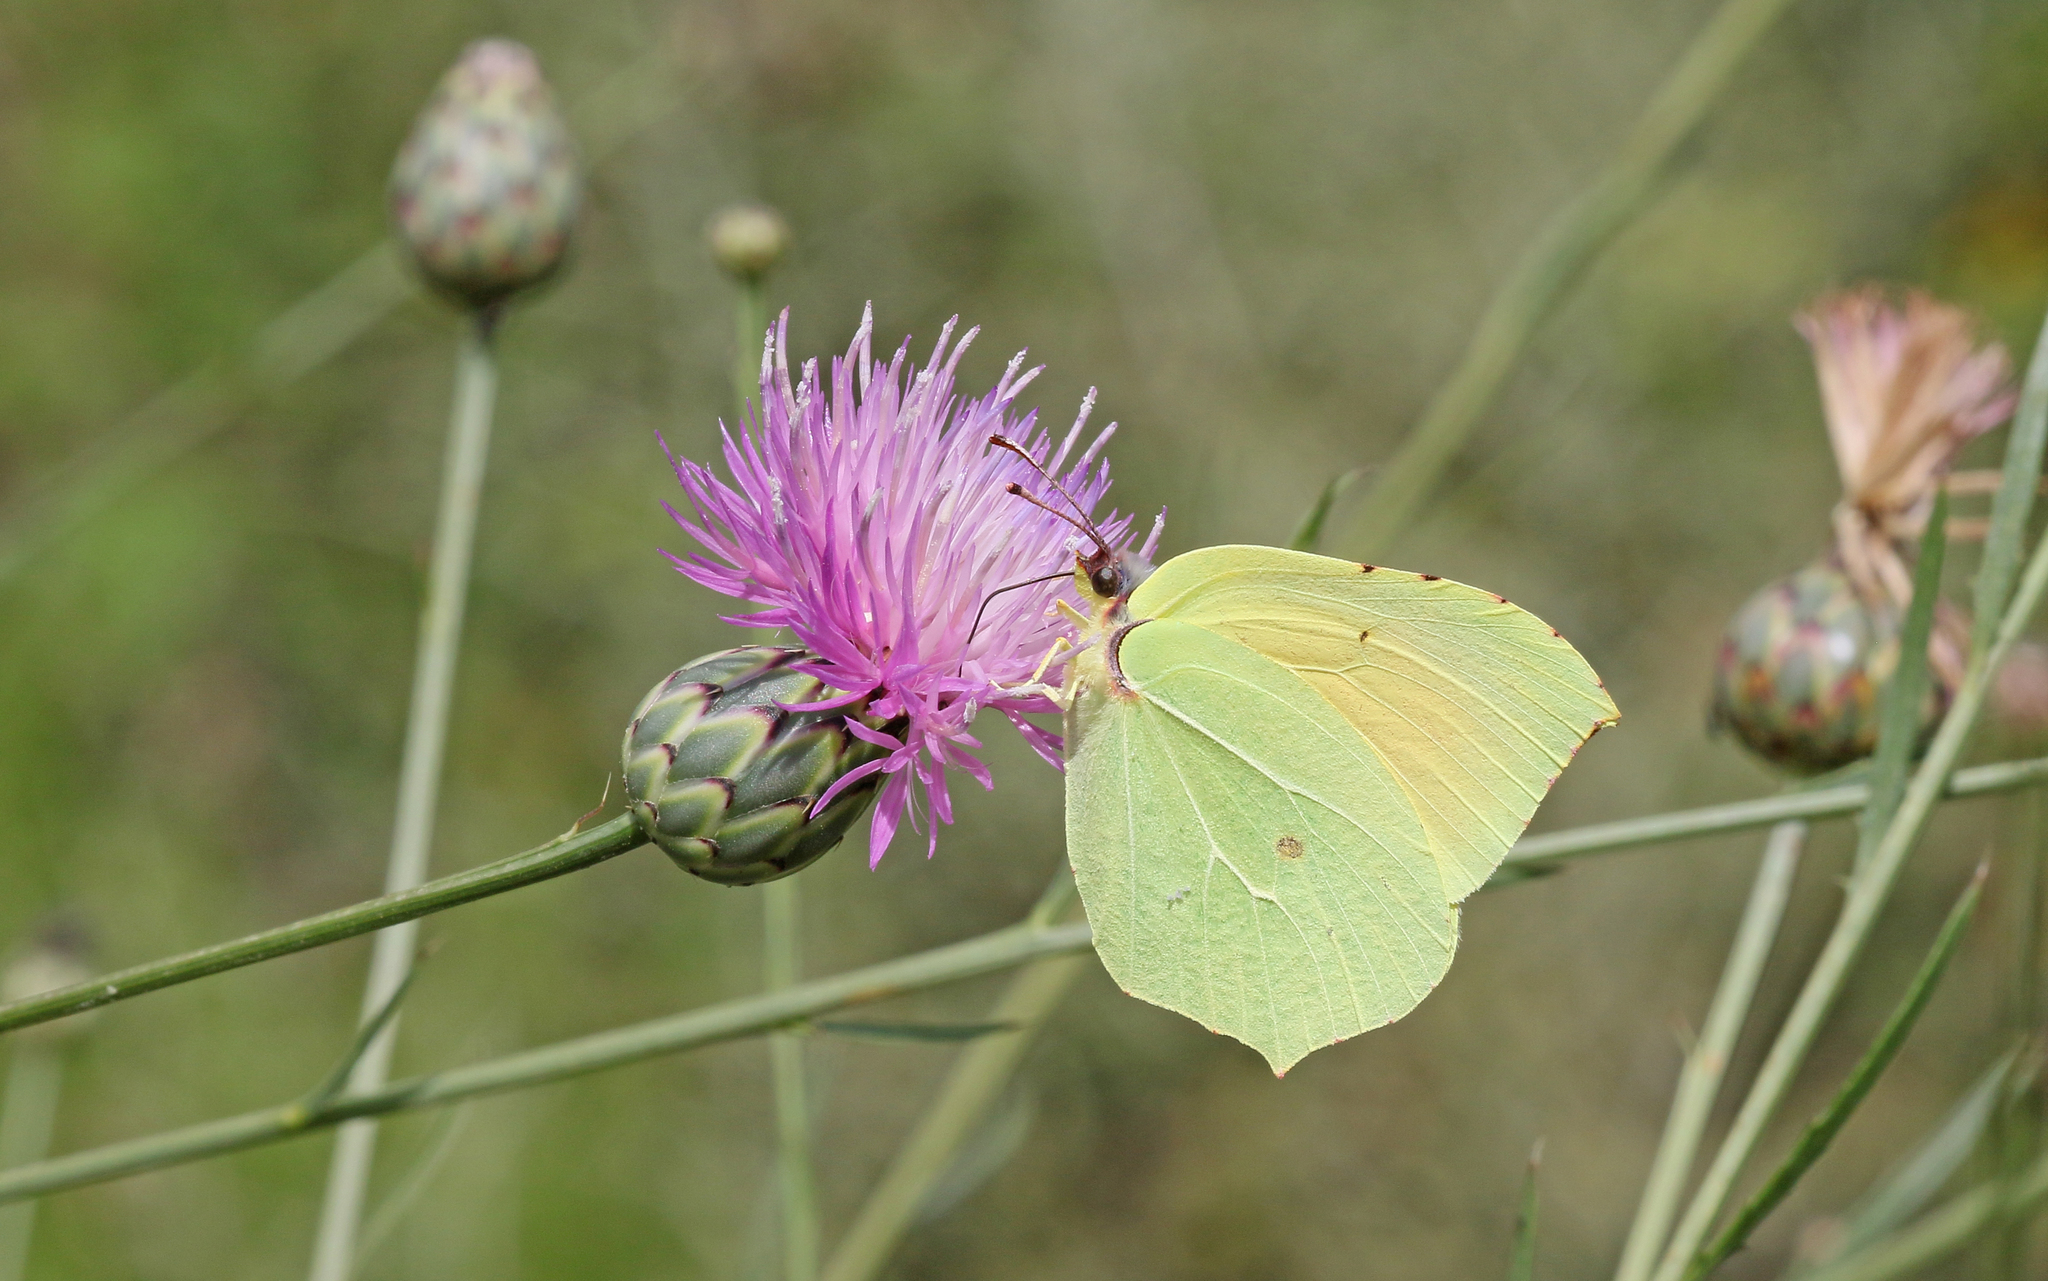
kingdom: Animalia
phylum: Arthropoda
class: Insecta
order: Lepidoptera
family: Pieridae
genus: Gonepteryx
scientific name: Gonepteryx cleopatra
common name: Cleopatra
